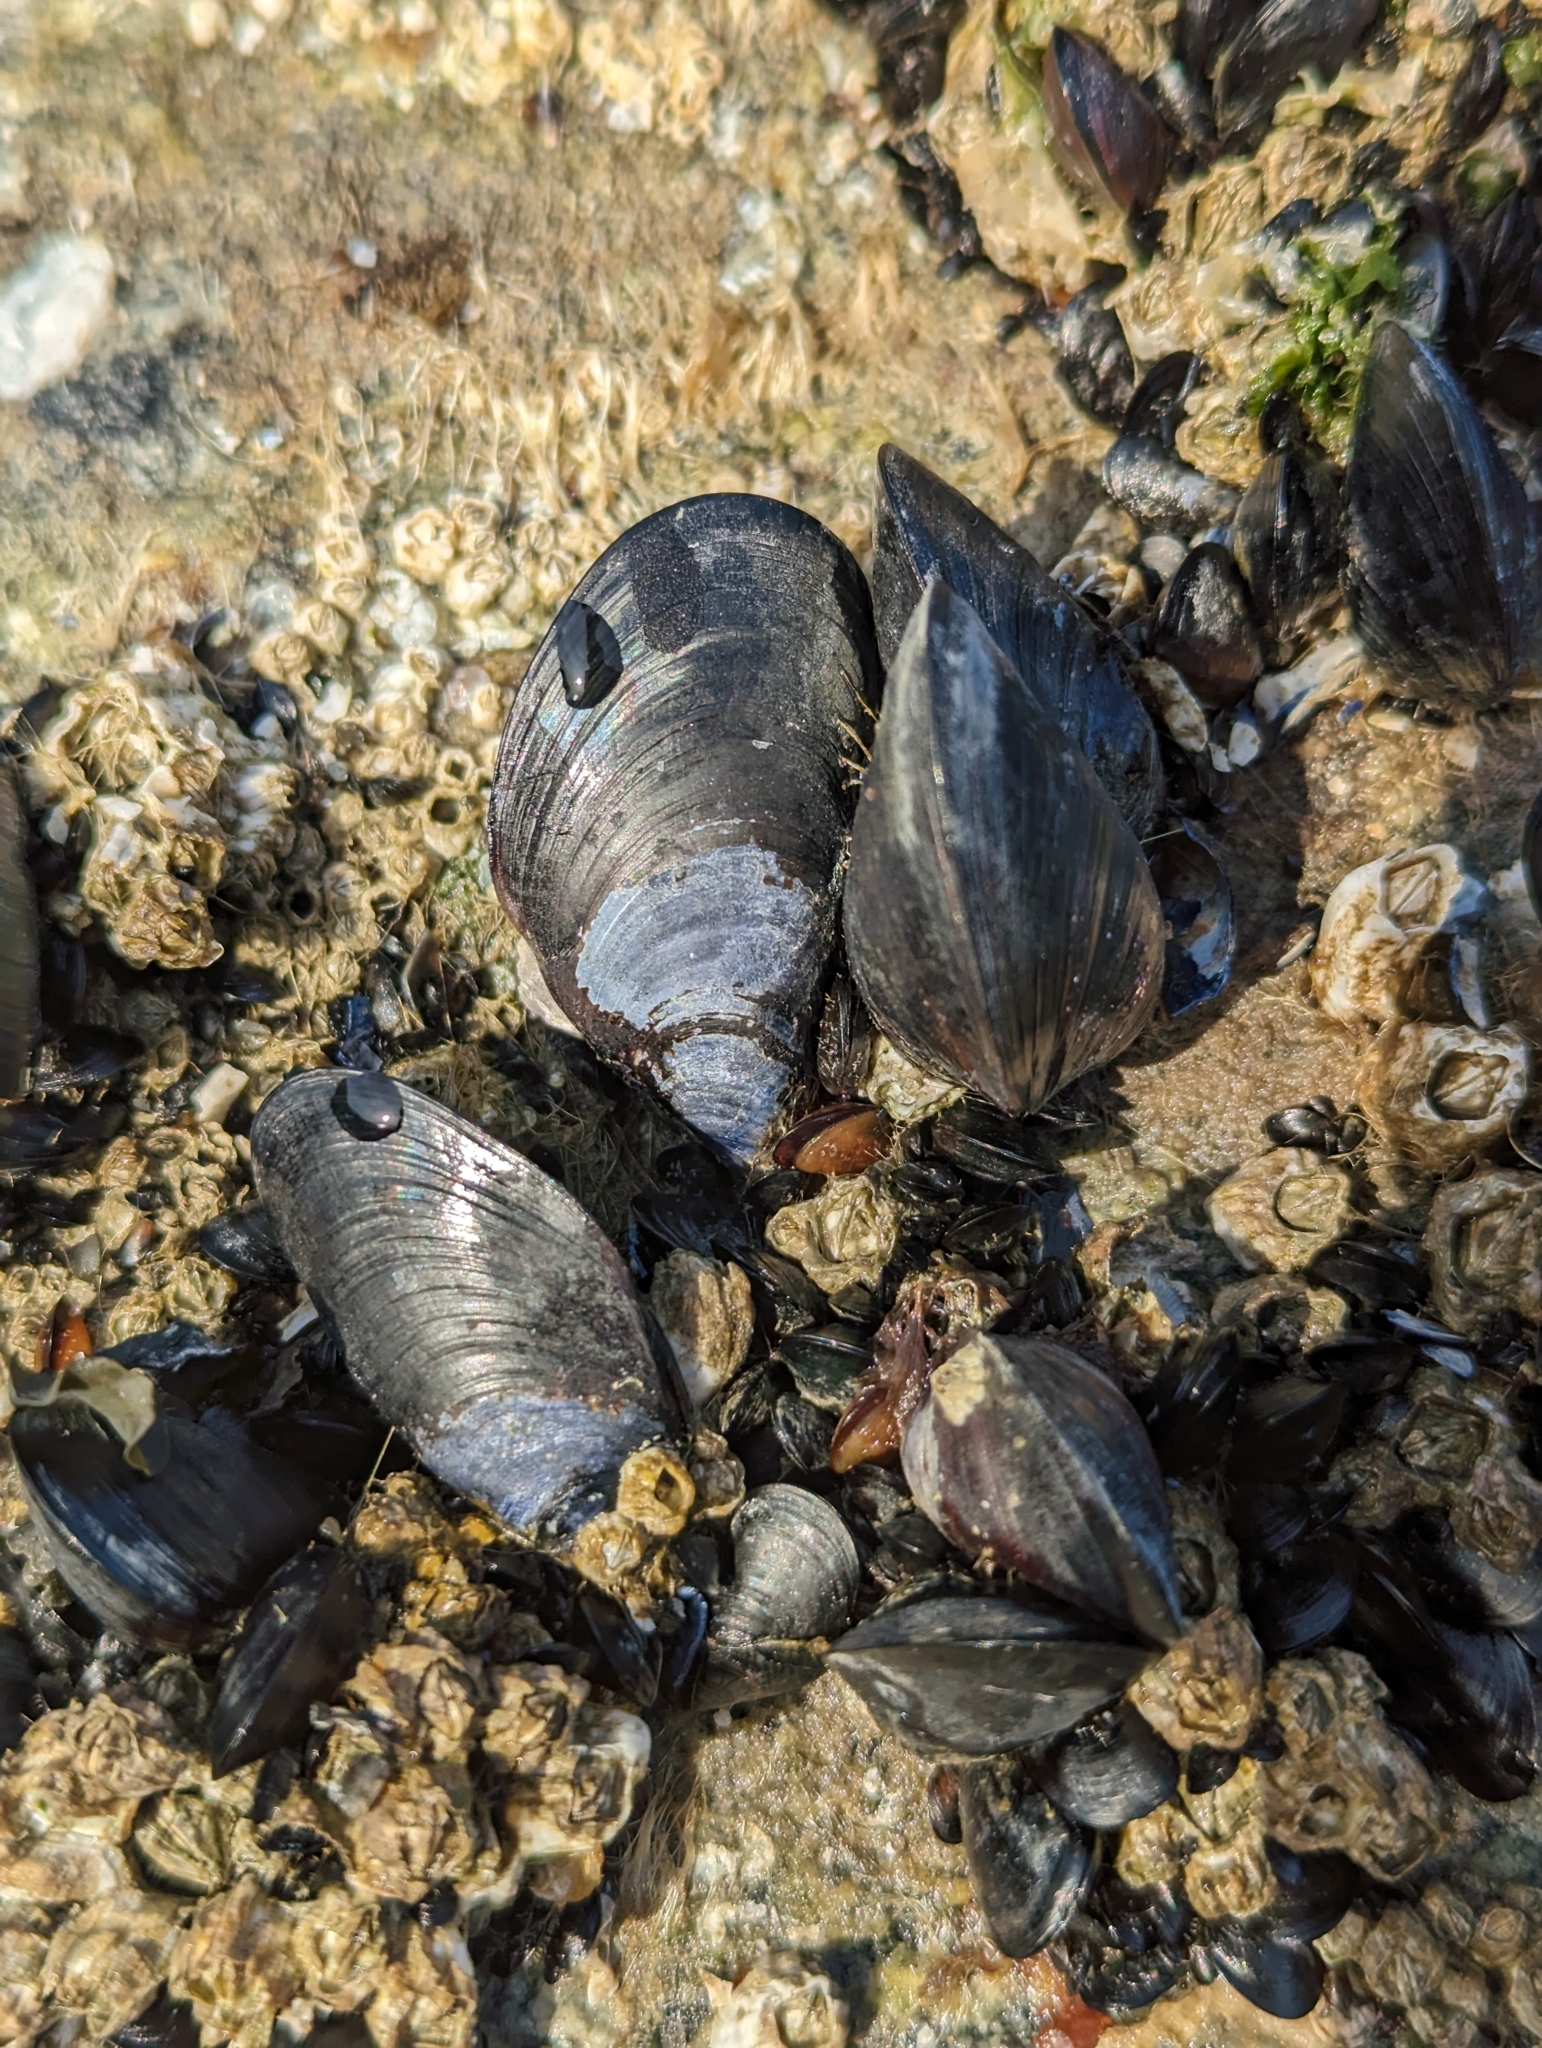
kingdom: Animalia
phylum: Mollusca
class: Bivalvia
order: Mytilida
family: Mytilidae
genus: Mytilus
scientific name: Mytilus
